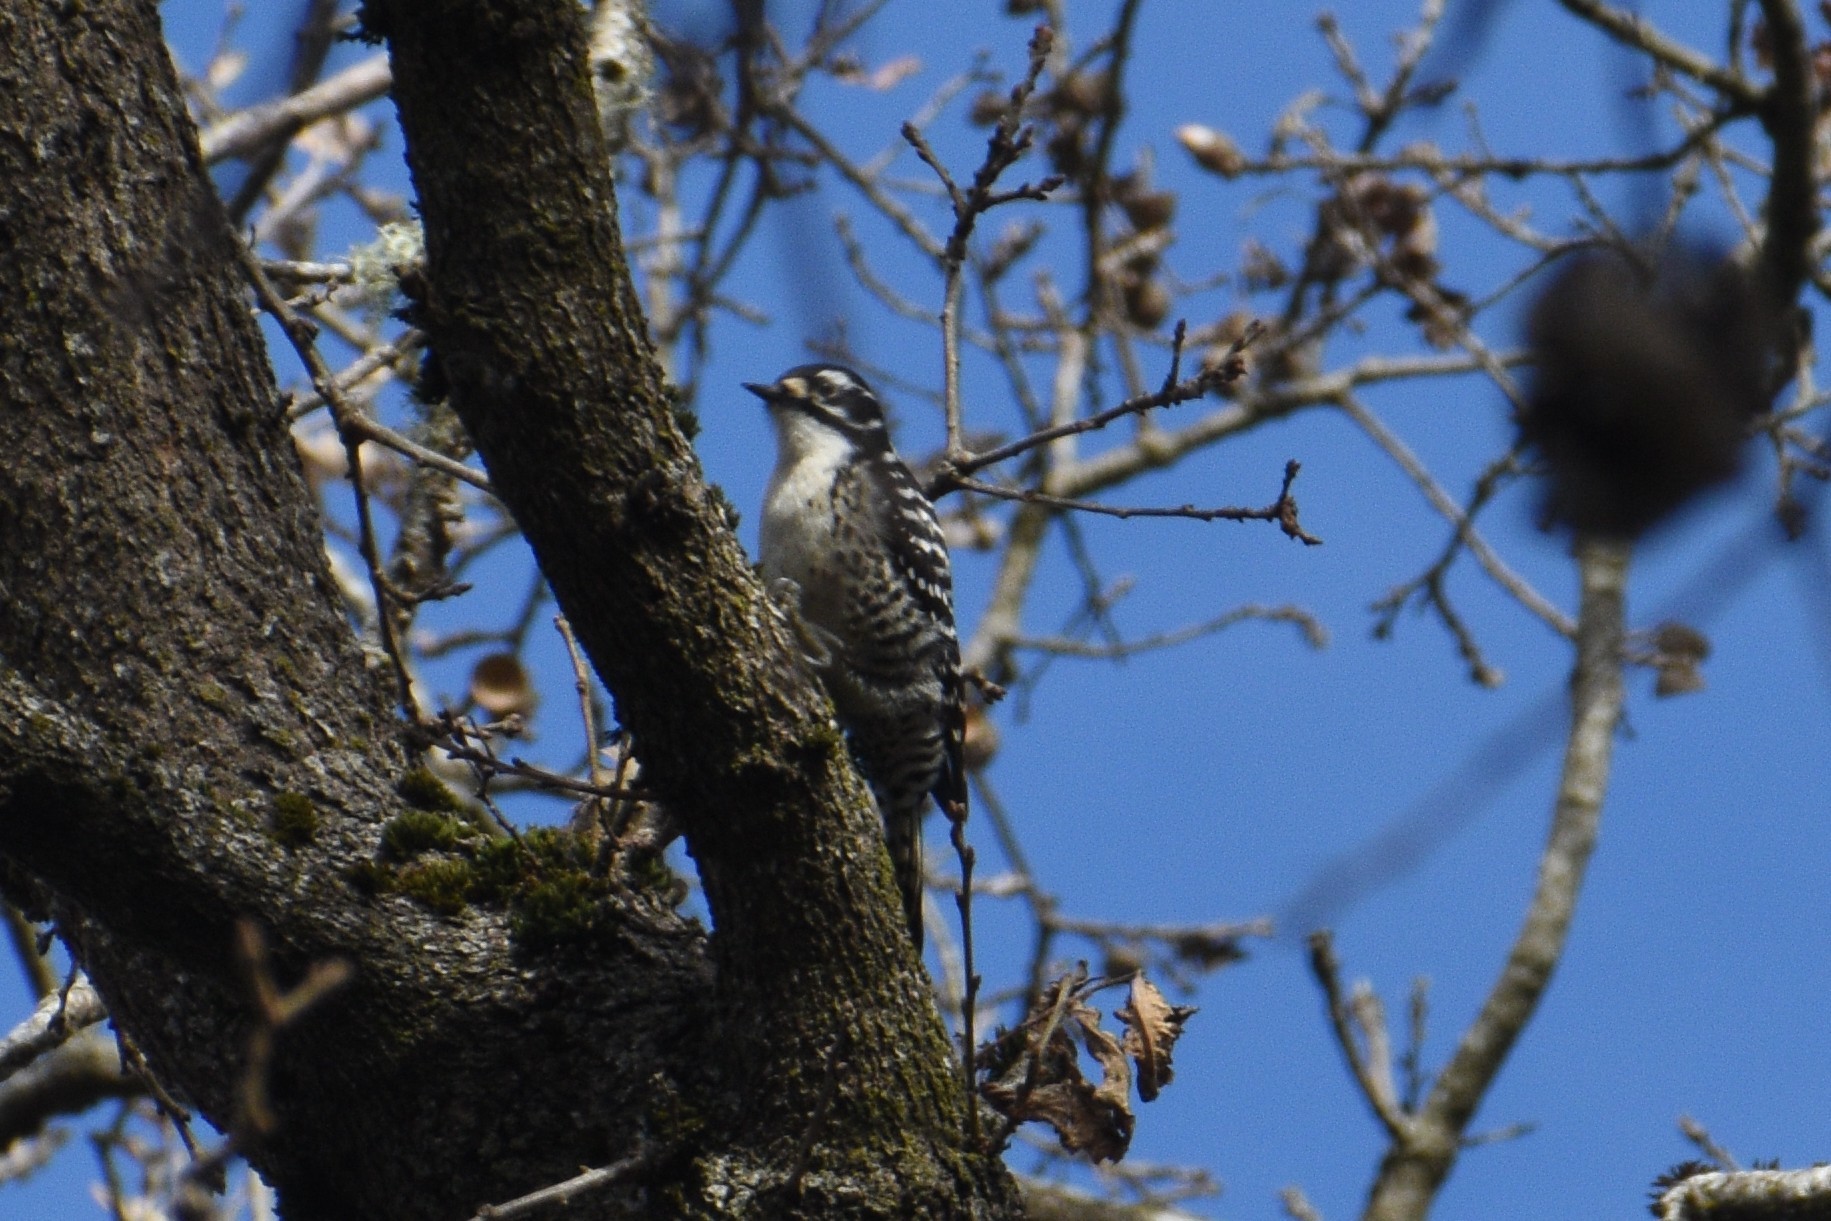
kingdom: Animalia
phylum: Chordata
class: Aves
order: Piciformes
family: Picidae
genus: Dryobates
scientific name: Dryobates nuttallii
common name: Nuttall's woodpecker
